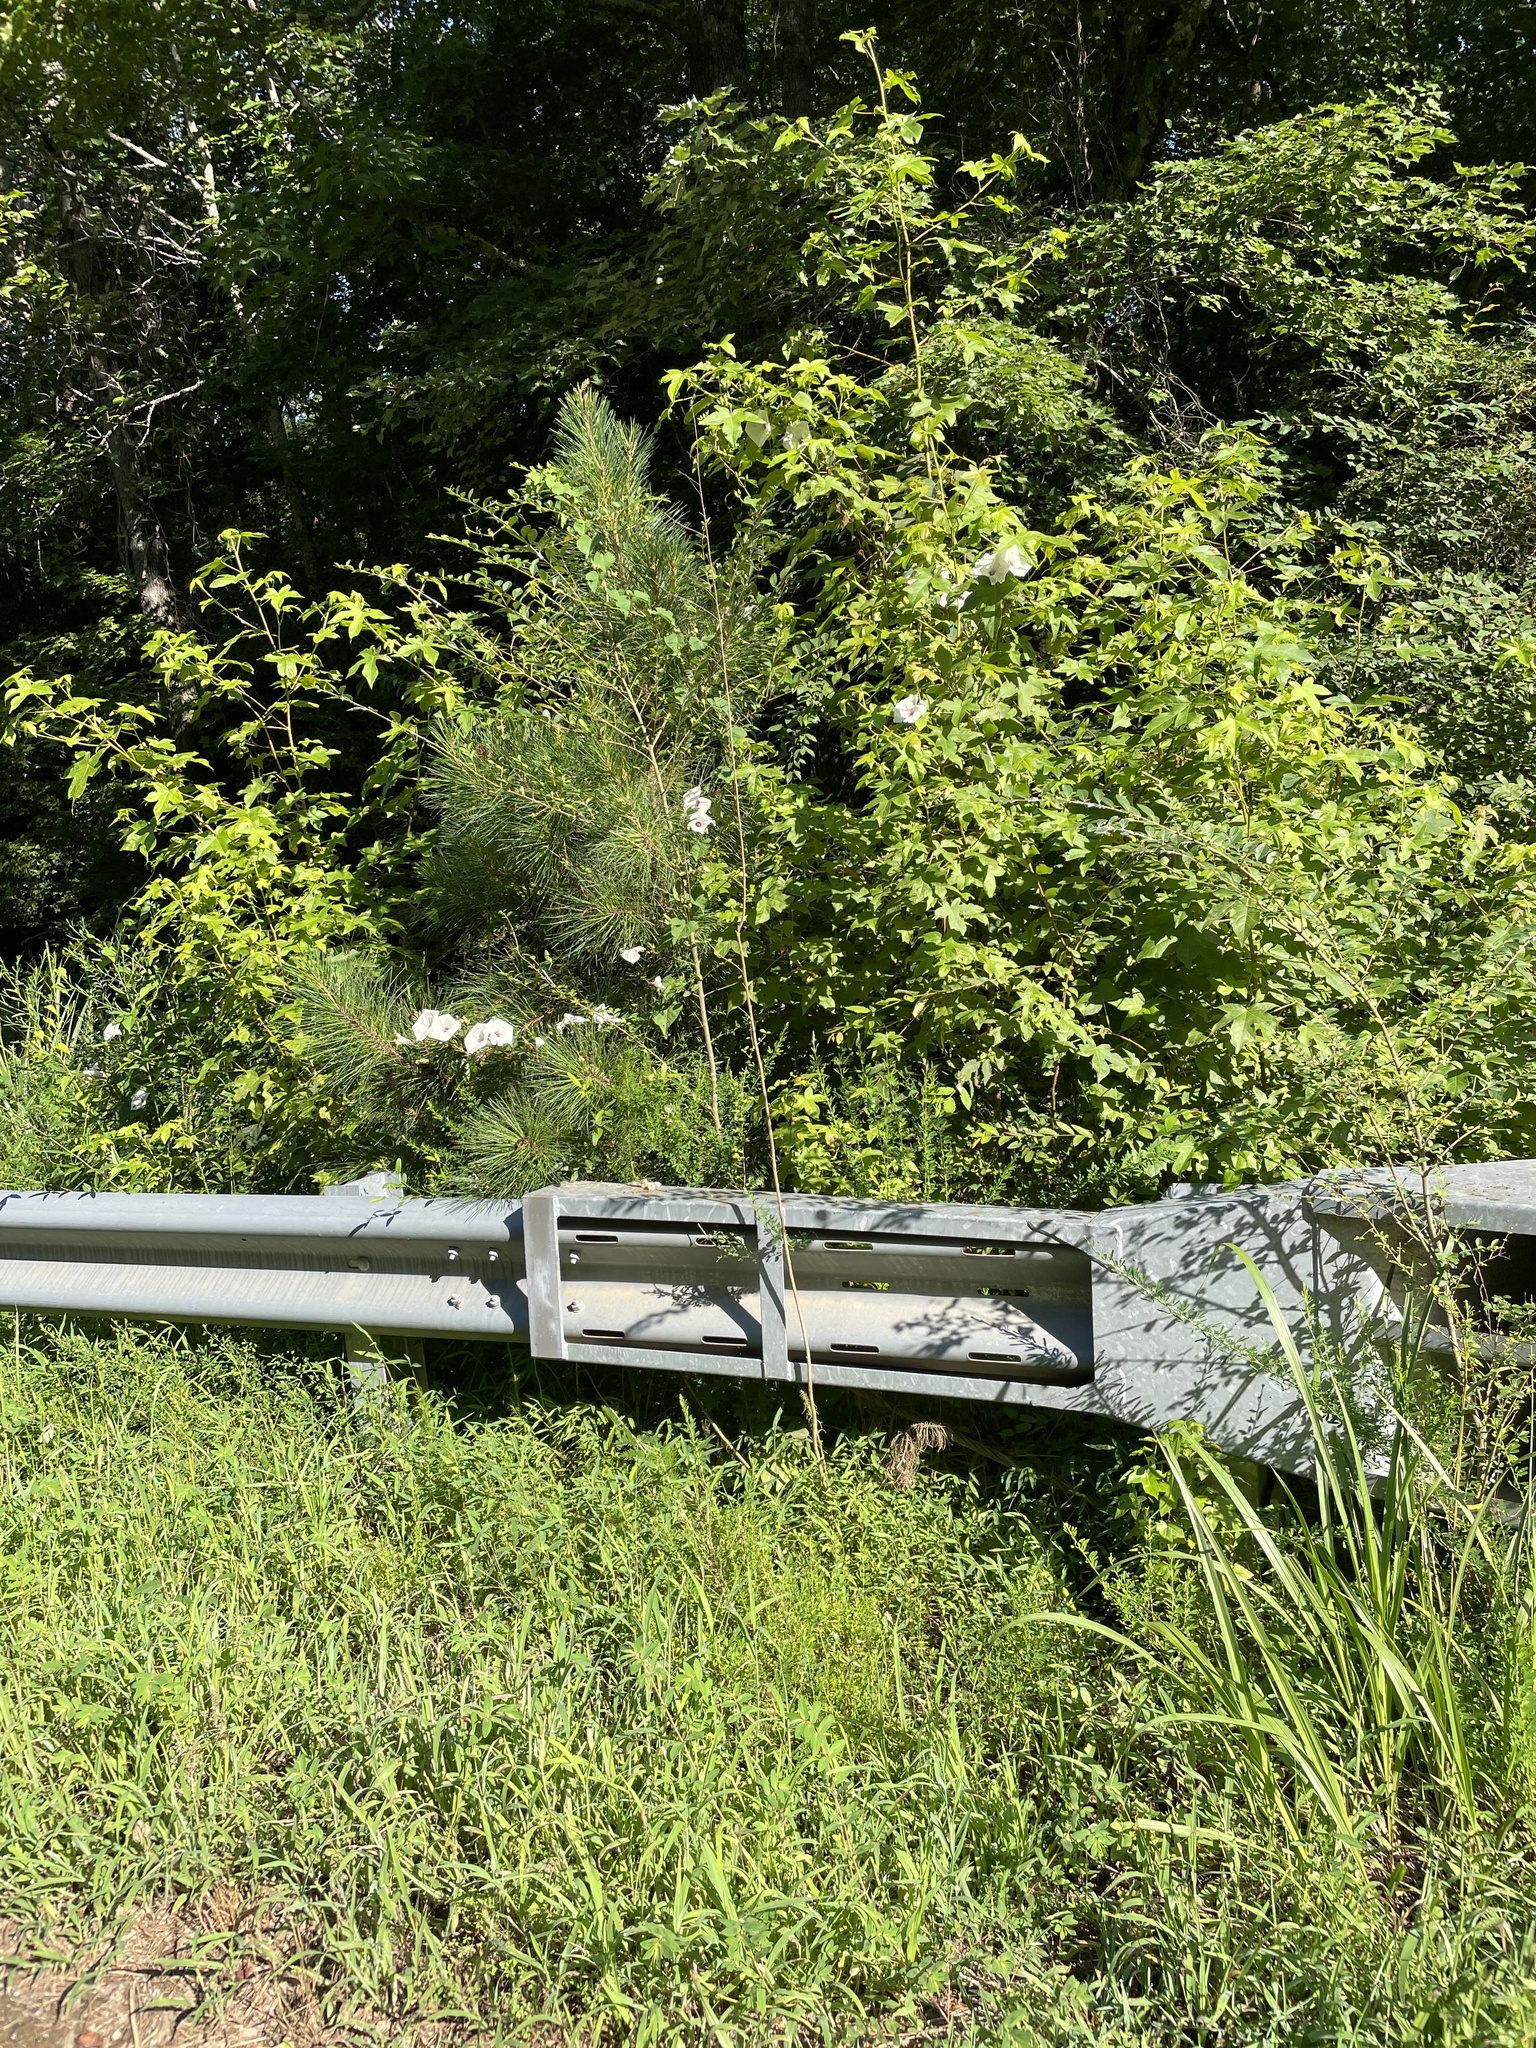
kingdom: Plantae
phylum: Tracheophyta
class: Magnoliopsida
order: Solanales
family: Convolvulaceae
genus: Ipomoea
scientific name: Ipomoea pandurata
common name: Man-of-the-earth
